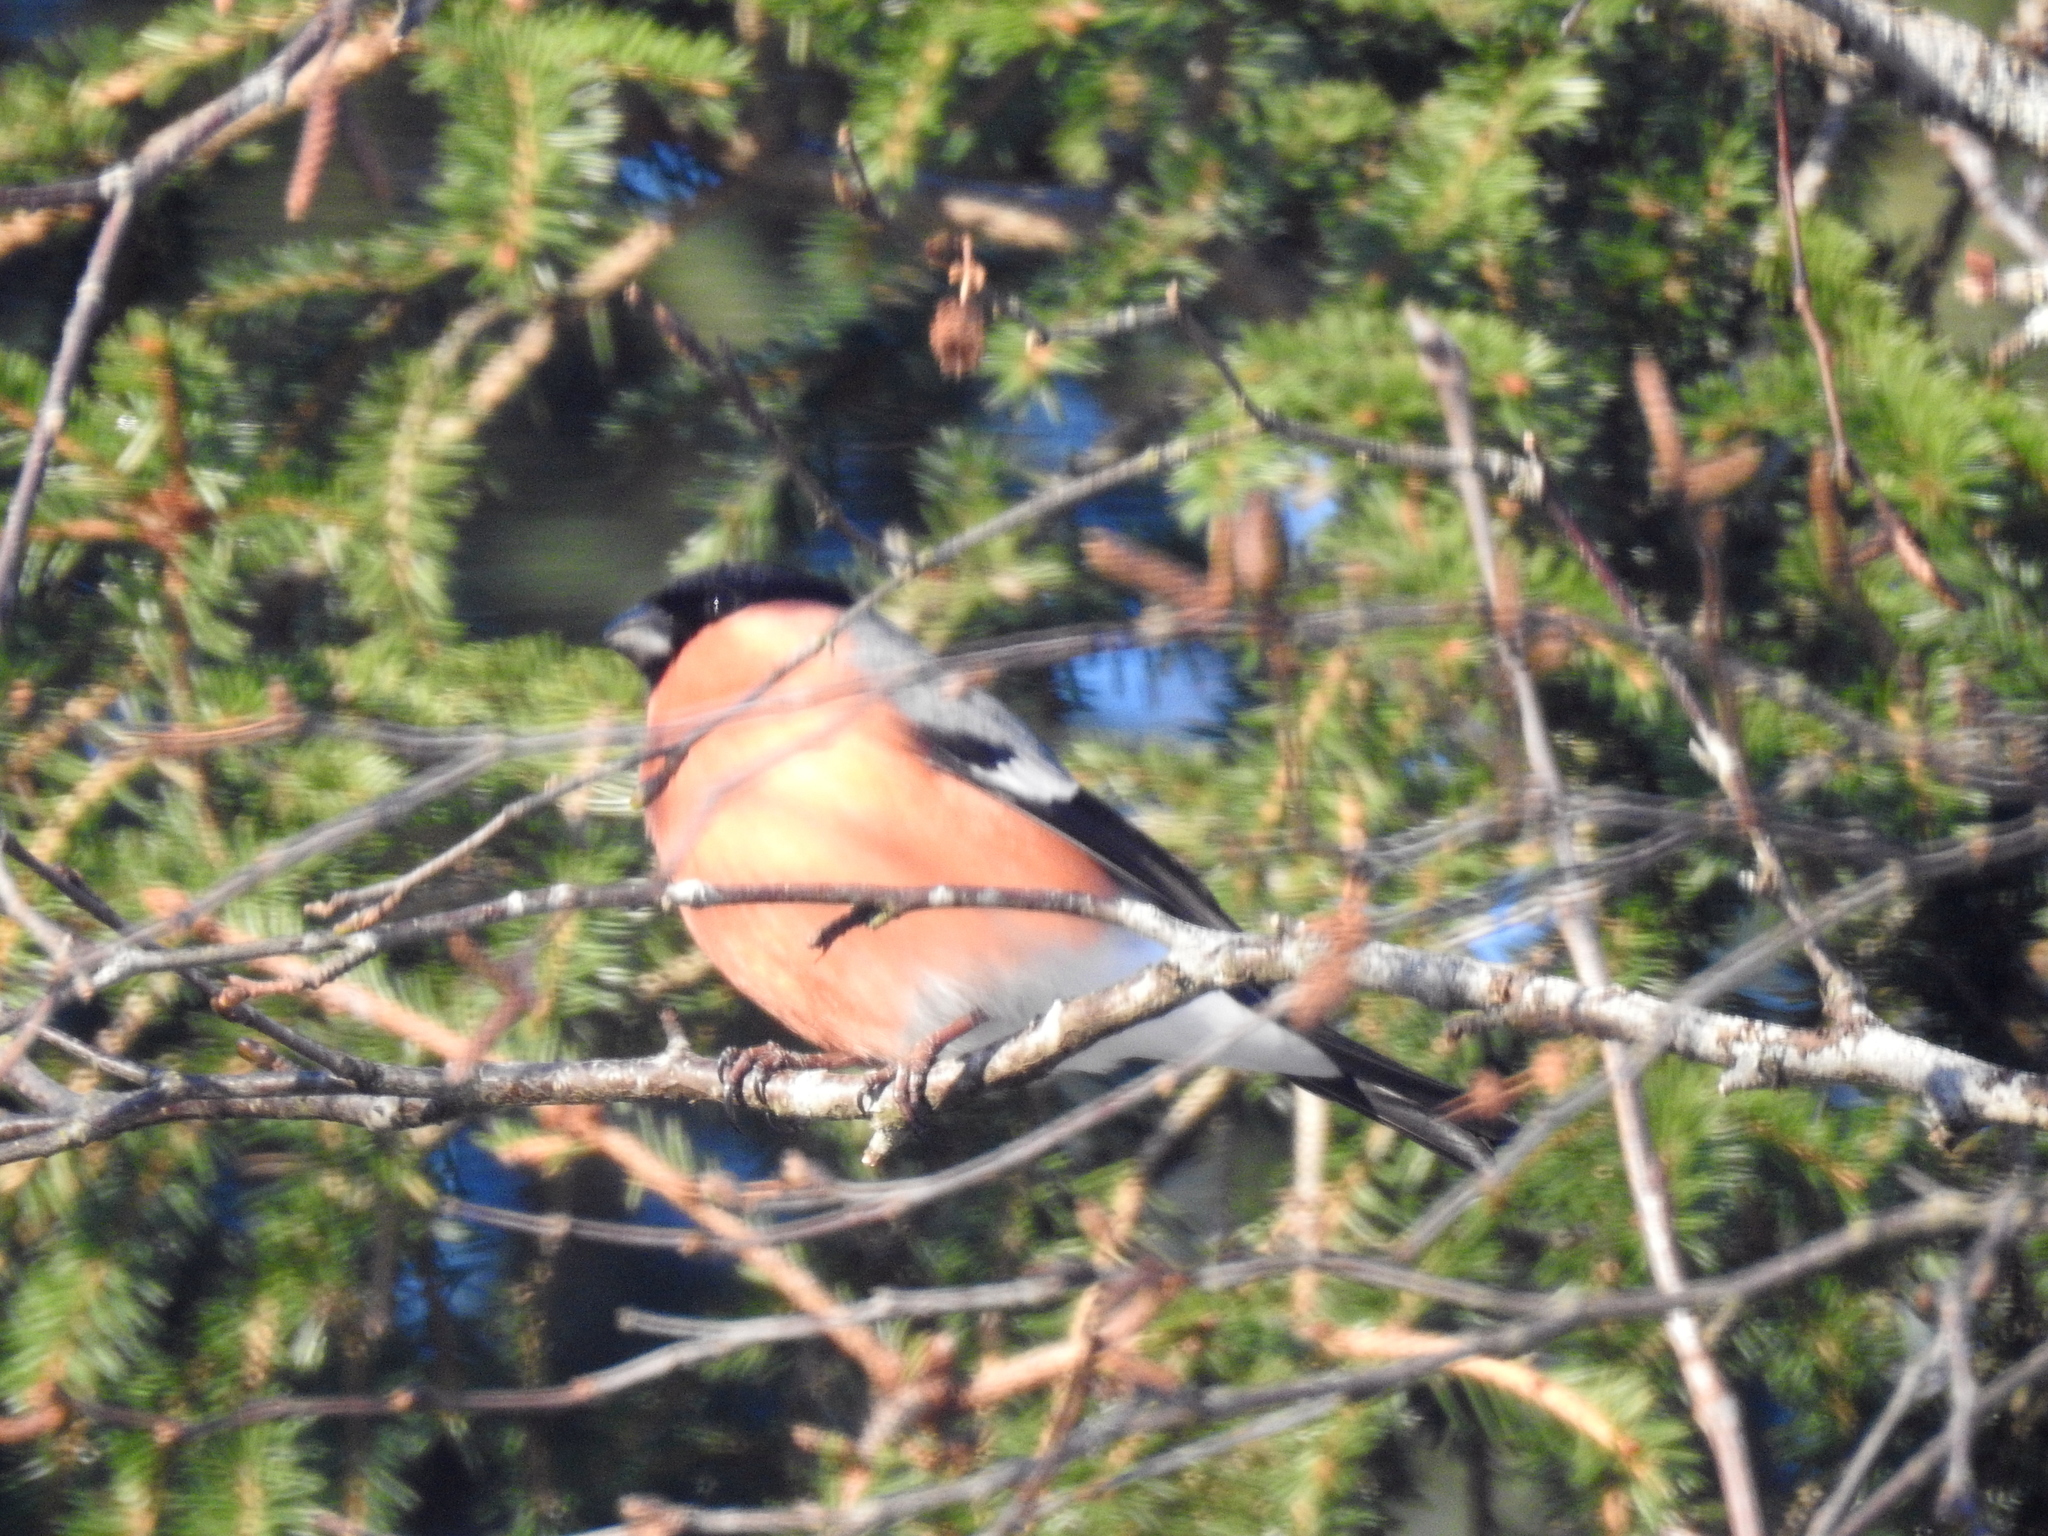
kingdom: Animalia
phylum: Chordata
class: Aves
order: Passeriformes
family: Fringillidae
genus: Pyrrhula
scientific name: Pyrrhula pyrrhula
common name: Eurasian bullfinch
